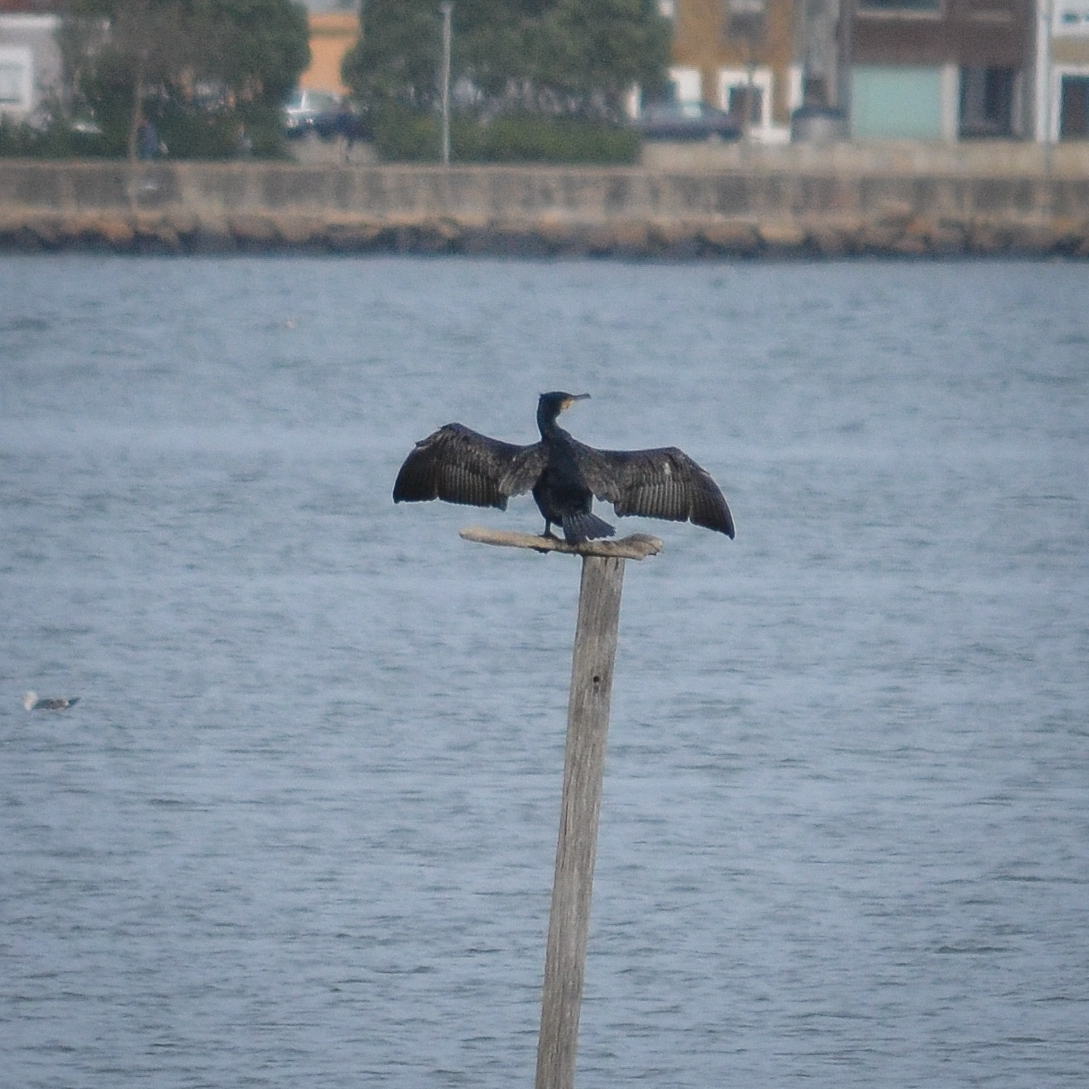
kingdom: Animalia
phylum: Chordata
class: Aves
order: Suliformes
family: Phalacrocoracidae
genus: Phalacrocorax
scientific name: Phalacrocorax carbo
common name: Great cormorant
